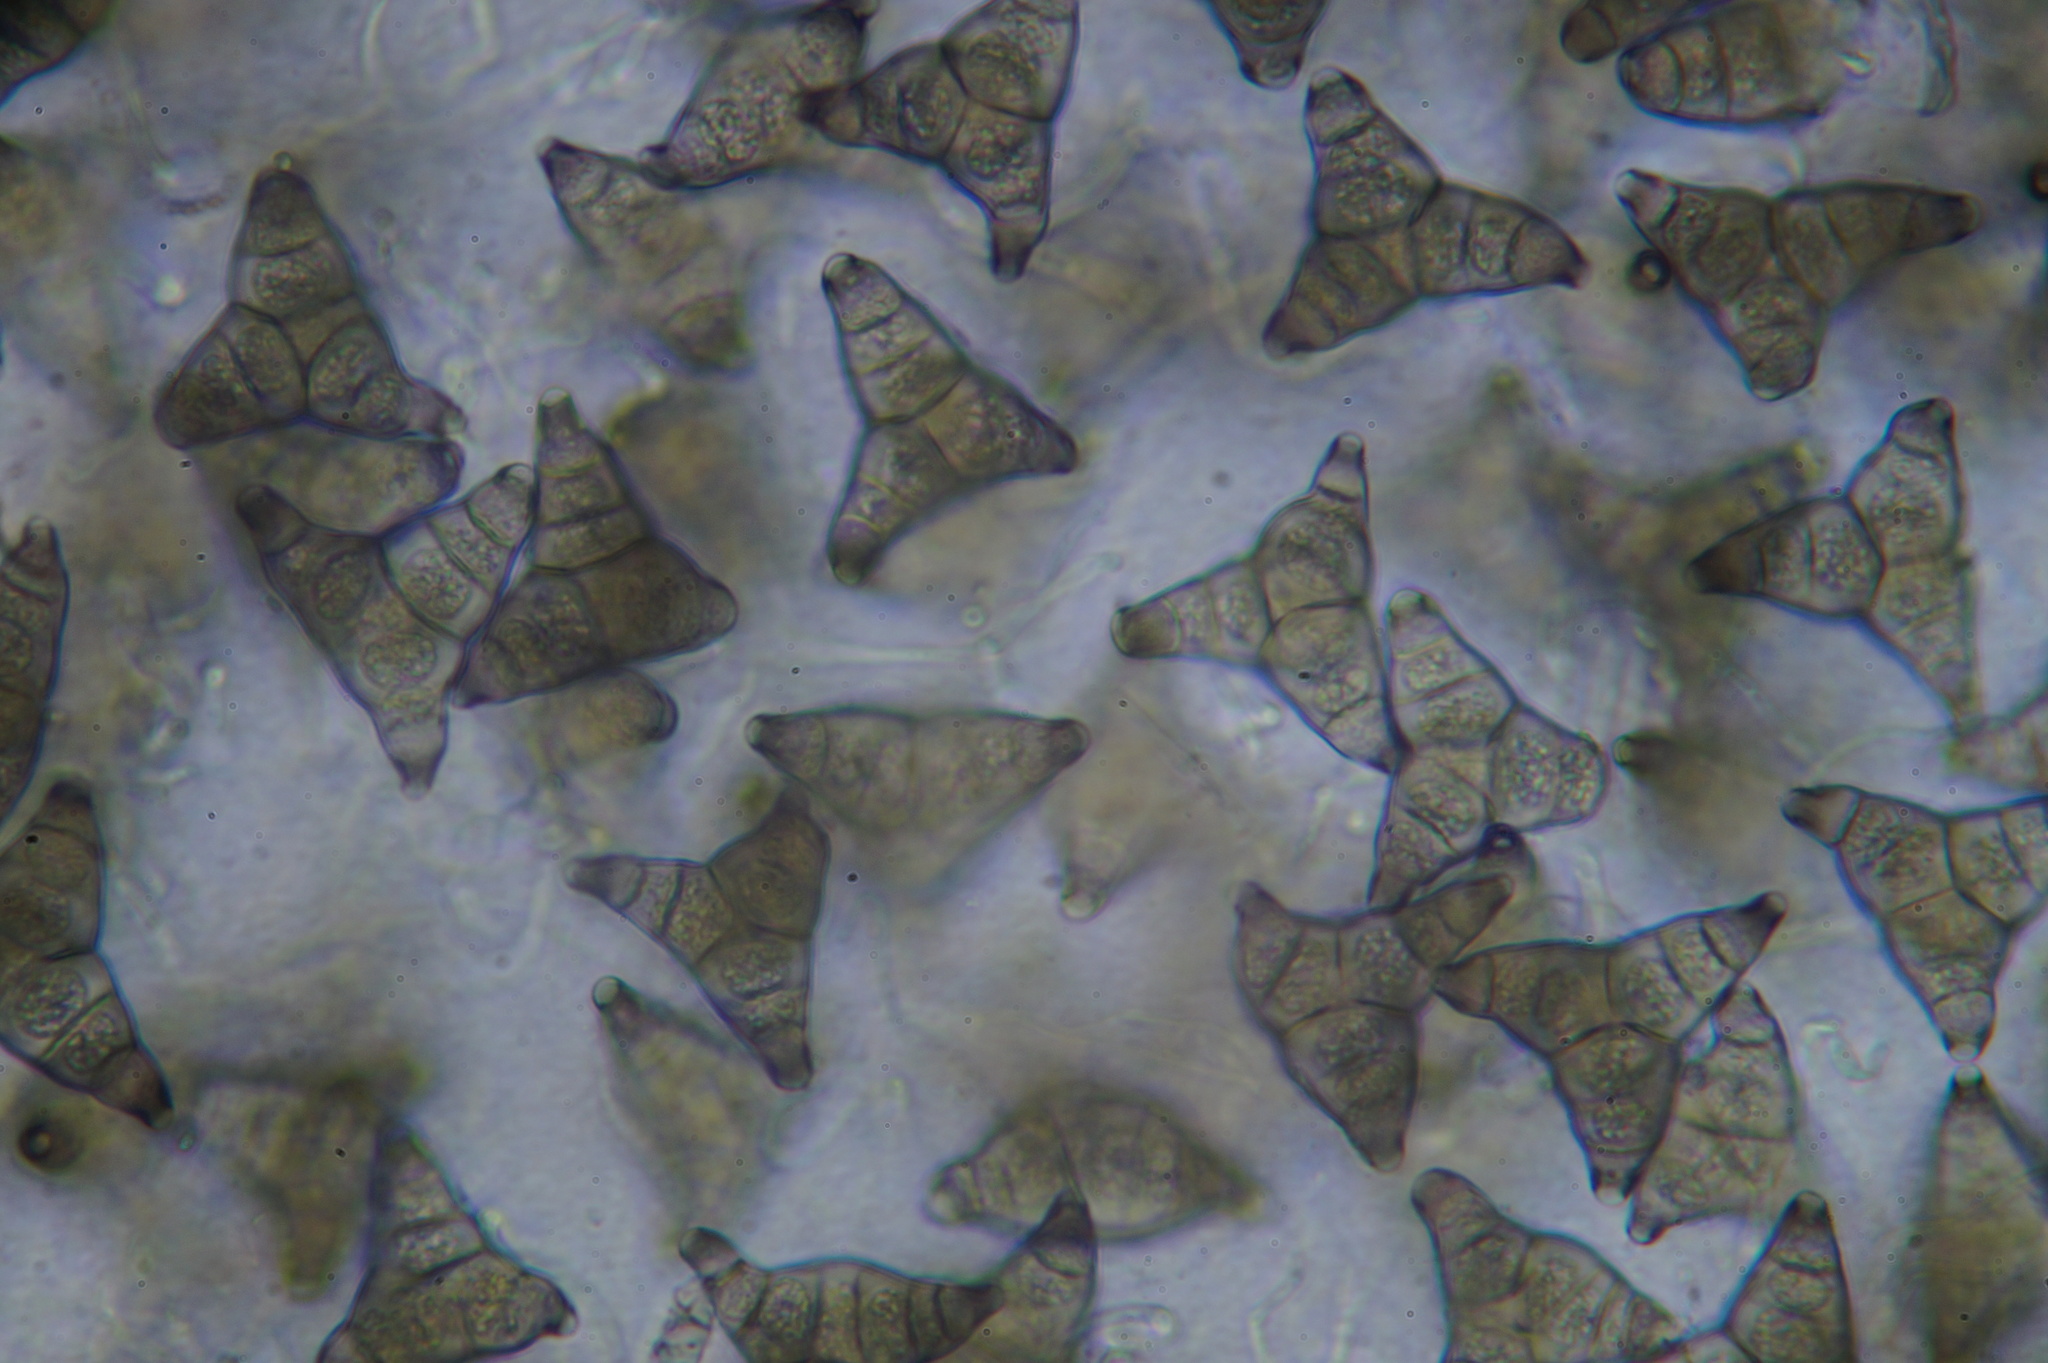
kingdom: Fungi
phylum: Ascomycota
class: Sordariomycetes
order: Diaporthales
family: Asterosporiaceae
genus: Asterosporium
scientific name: Asterosporium asterospermum
